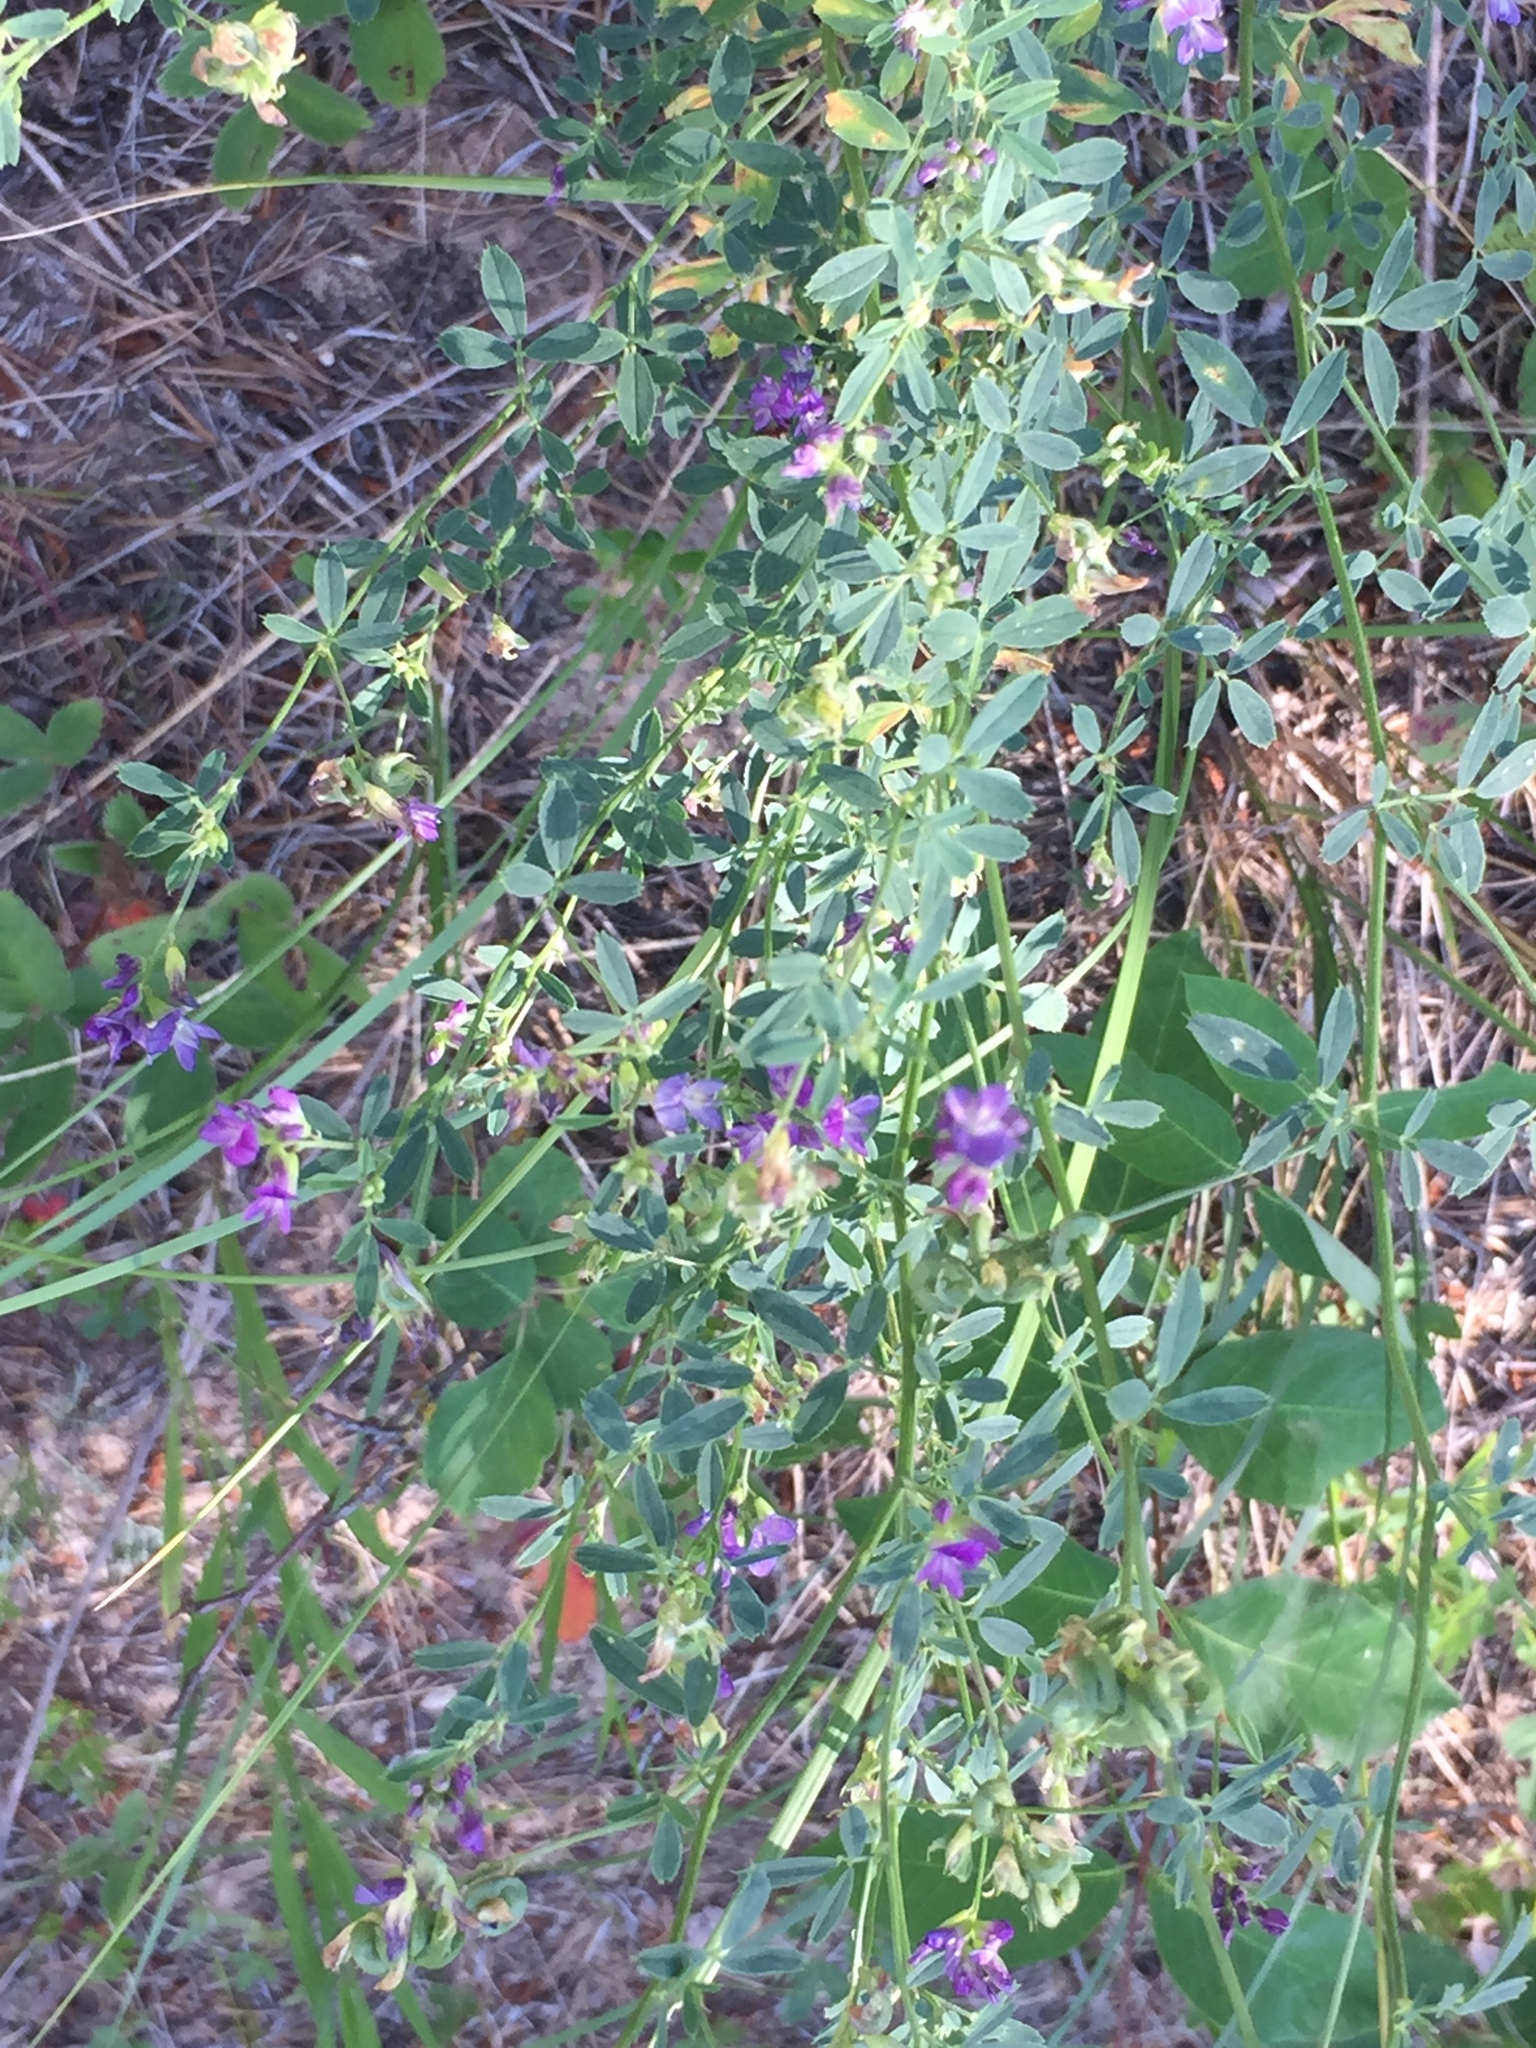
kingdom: Plantae
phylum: Tracheophyta
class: Magnoliopsida
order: Fabales
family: Fabaceae
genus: Medicago
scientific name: Medicago sativa
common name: Alfalfa
